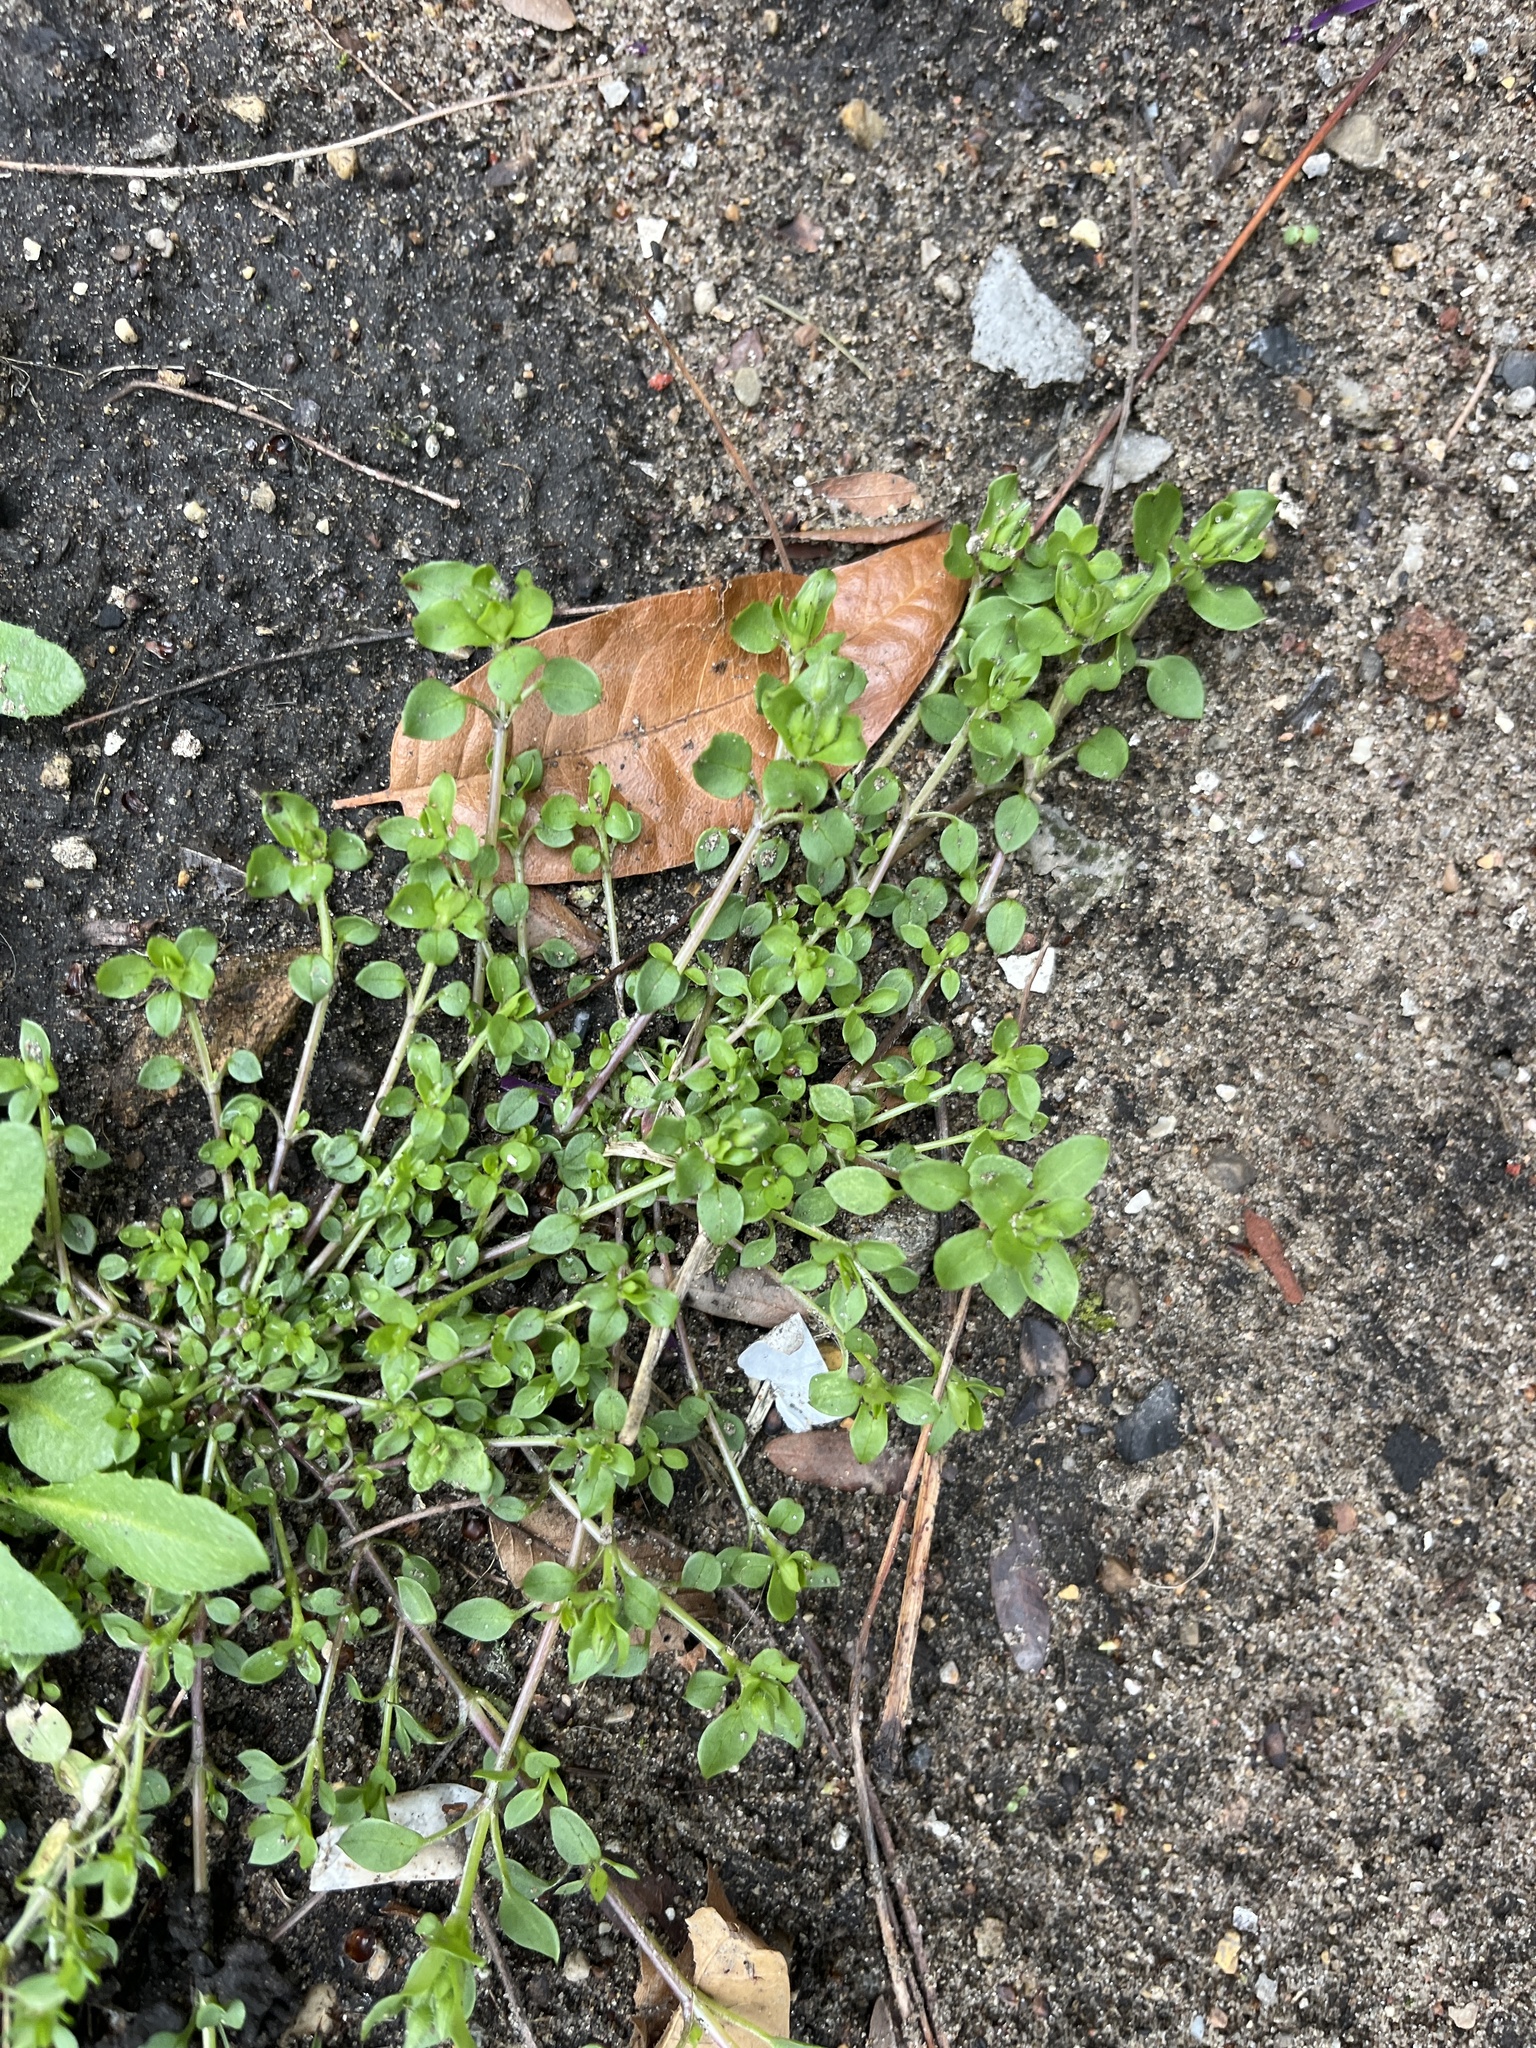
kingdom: Plantae
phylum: Tracheophyta
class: Magnoliopsida
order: Caryophyllales
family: Caryophyllaceae
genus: Stellaria
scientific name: Stellaria media
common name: Common chickweed
